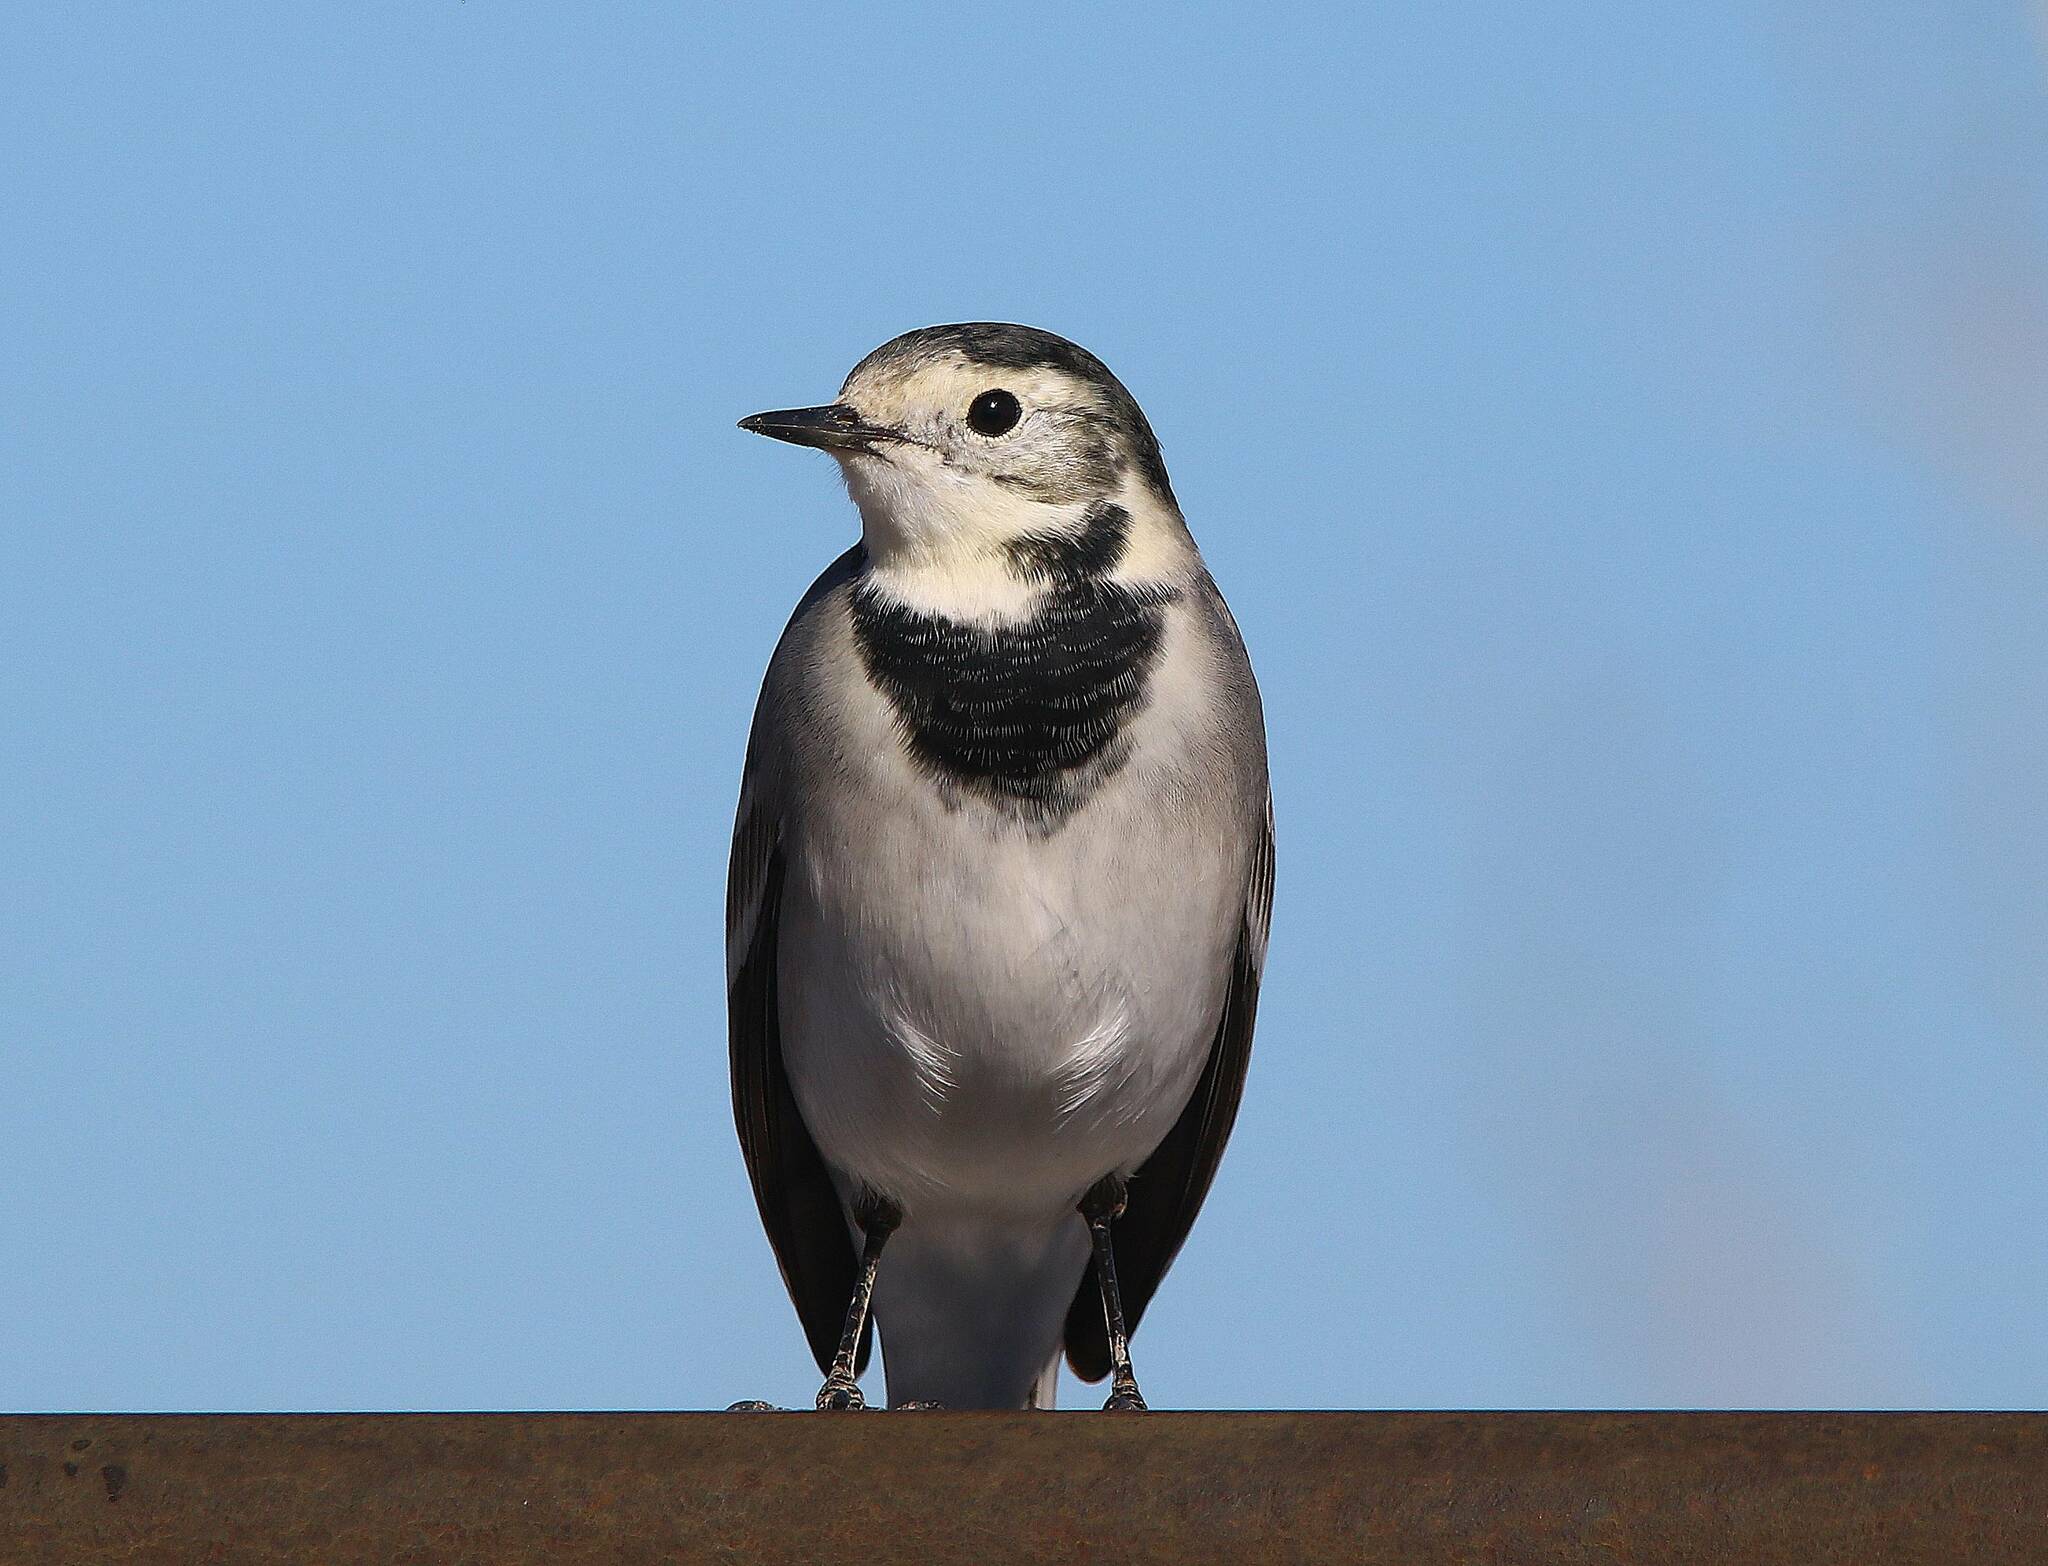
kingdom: Animalia
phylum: Chordata
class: Aves
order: Passeriformes
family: Motacillidae
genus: Motacilla
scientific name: Motacilla alba
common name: White wagtail
